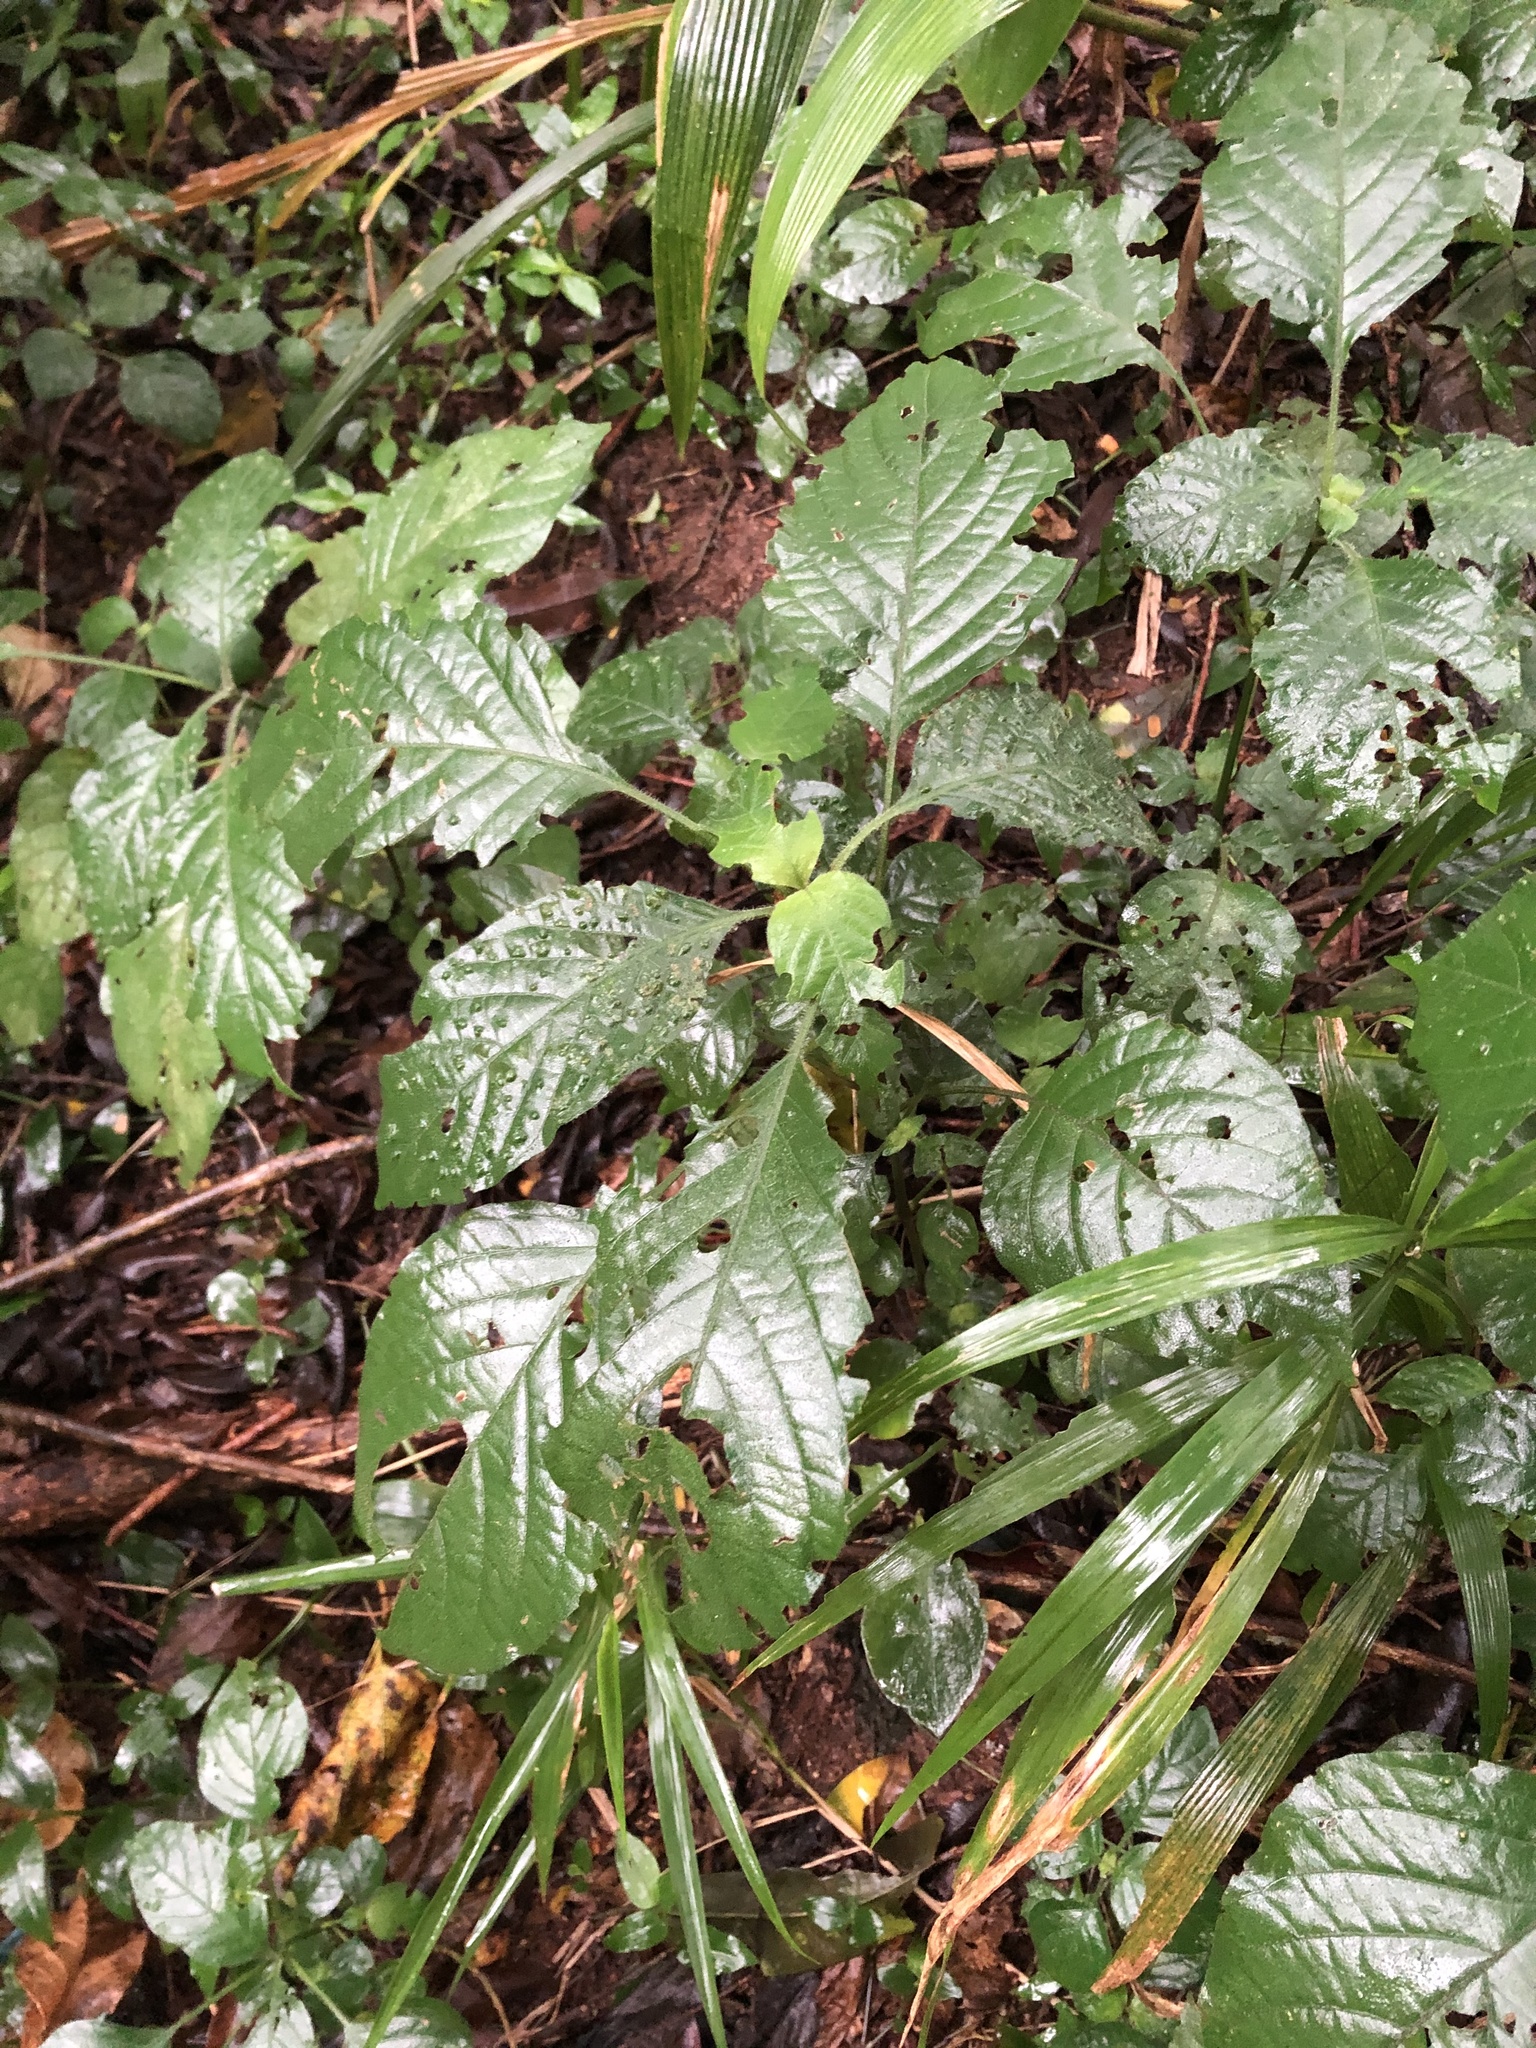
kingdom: Plantae
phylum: Tracheophyta
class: Magnoliopsida
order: Lamiales
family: Acanthaceae
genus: Isoglossa
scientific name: Isoglossa woodii
